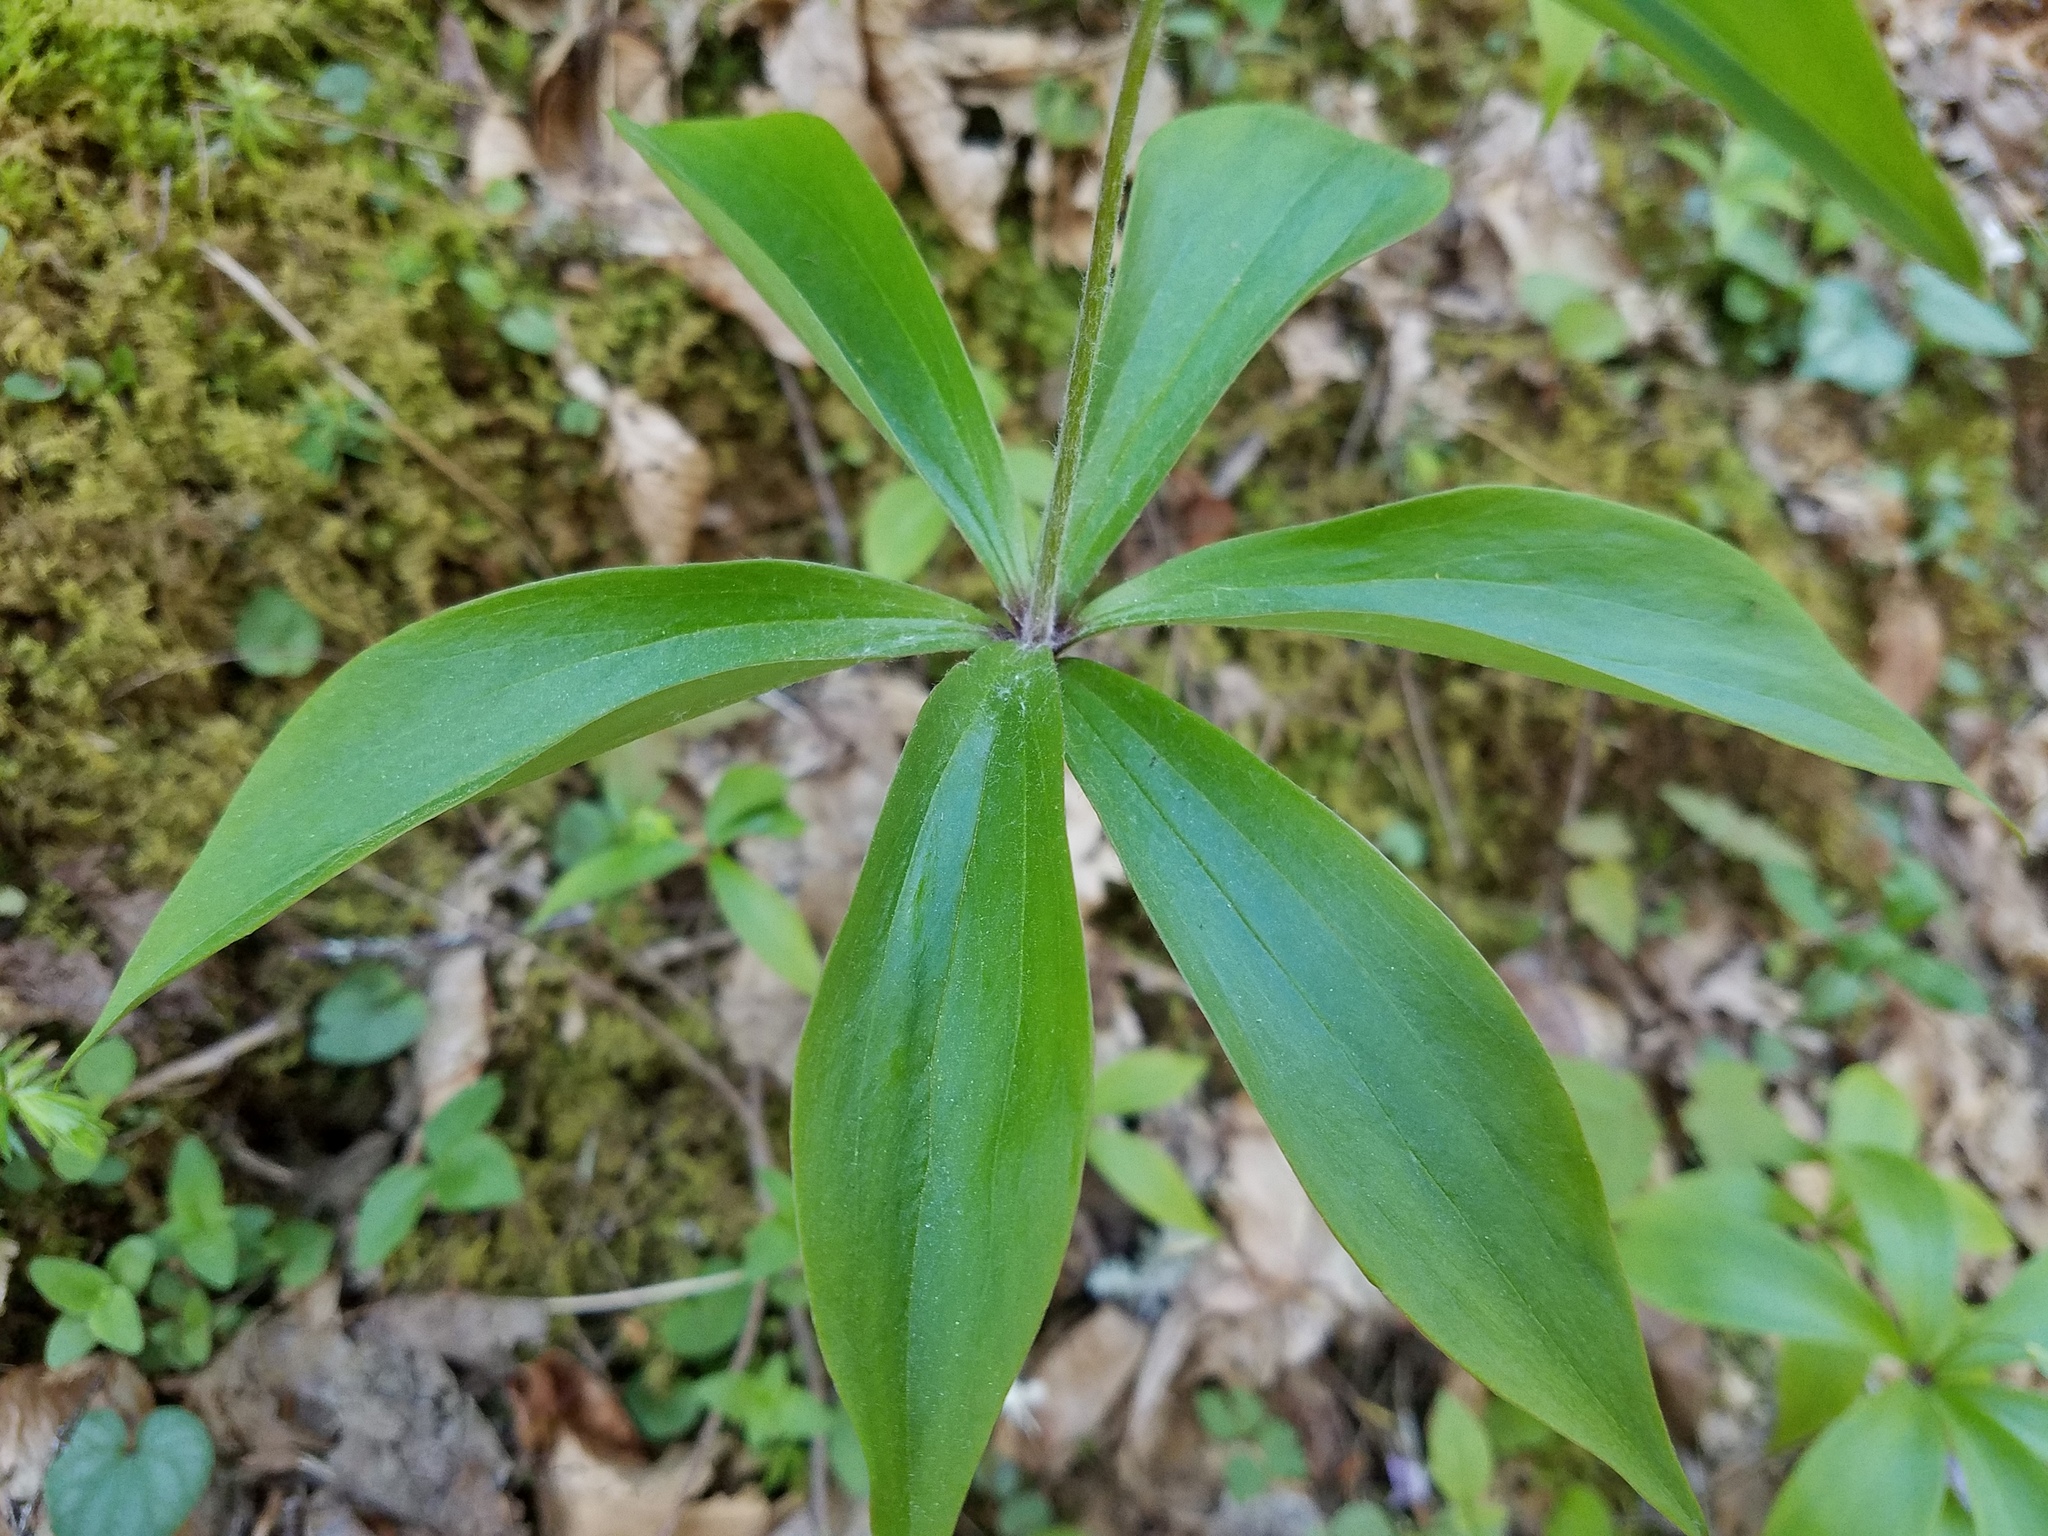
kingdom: Plantae
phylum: Tracheophyta
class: Liliopsida
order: Liliales
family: Liliaceae
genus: Medeola
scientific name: Medeola virginiana
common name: Indian cucumber-root
